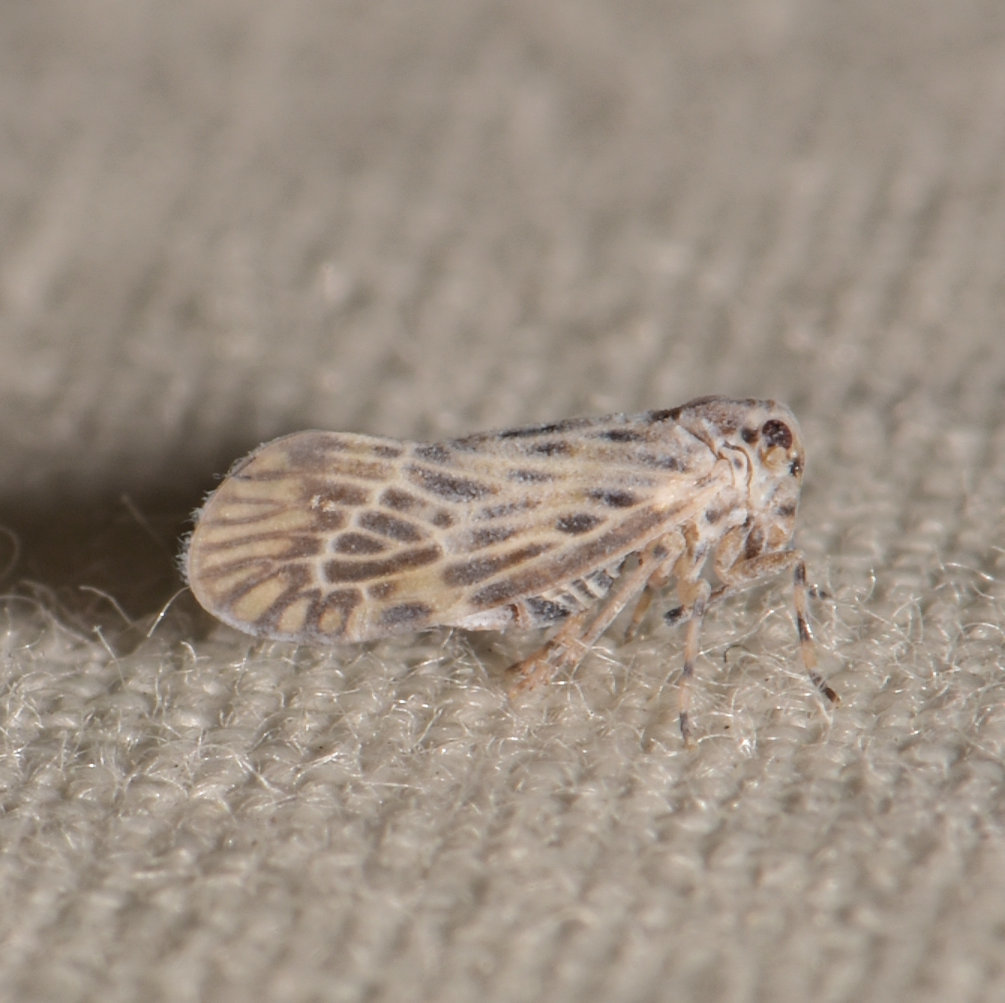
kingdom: Animalia
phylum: Arthropoda
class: Insecta
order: Hemiptera
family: Derbidae
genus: Cedusa
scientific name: Cedusa maculata
